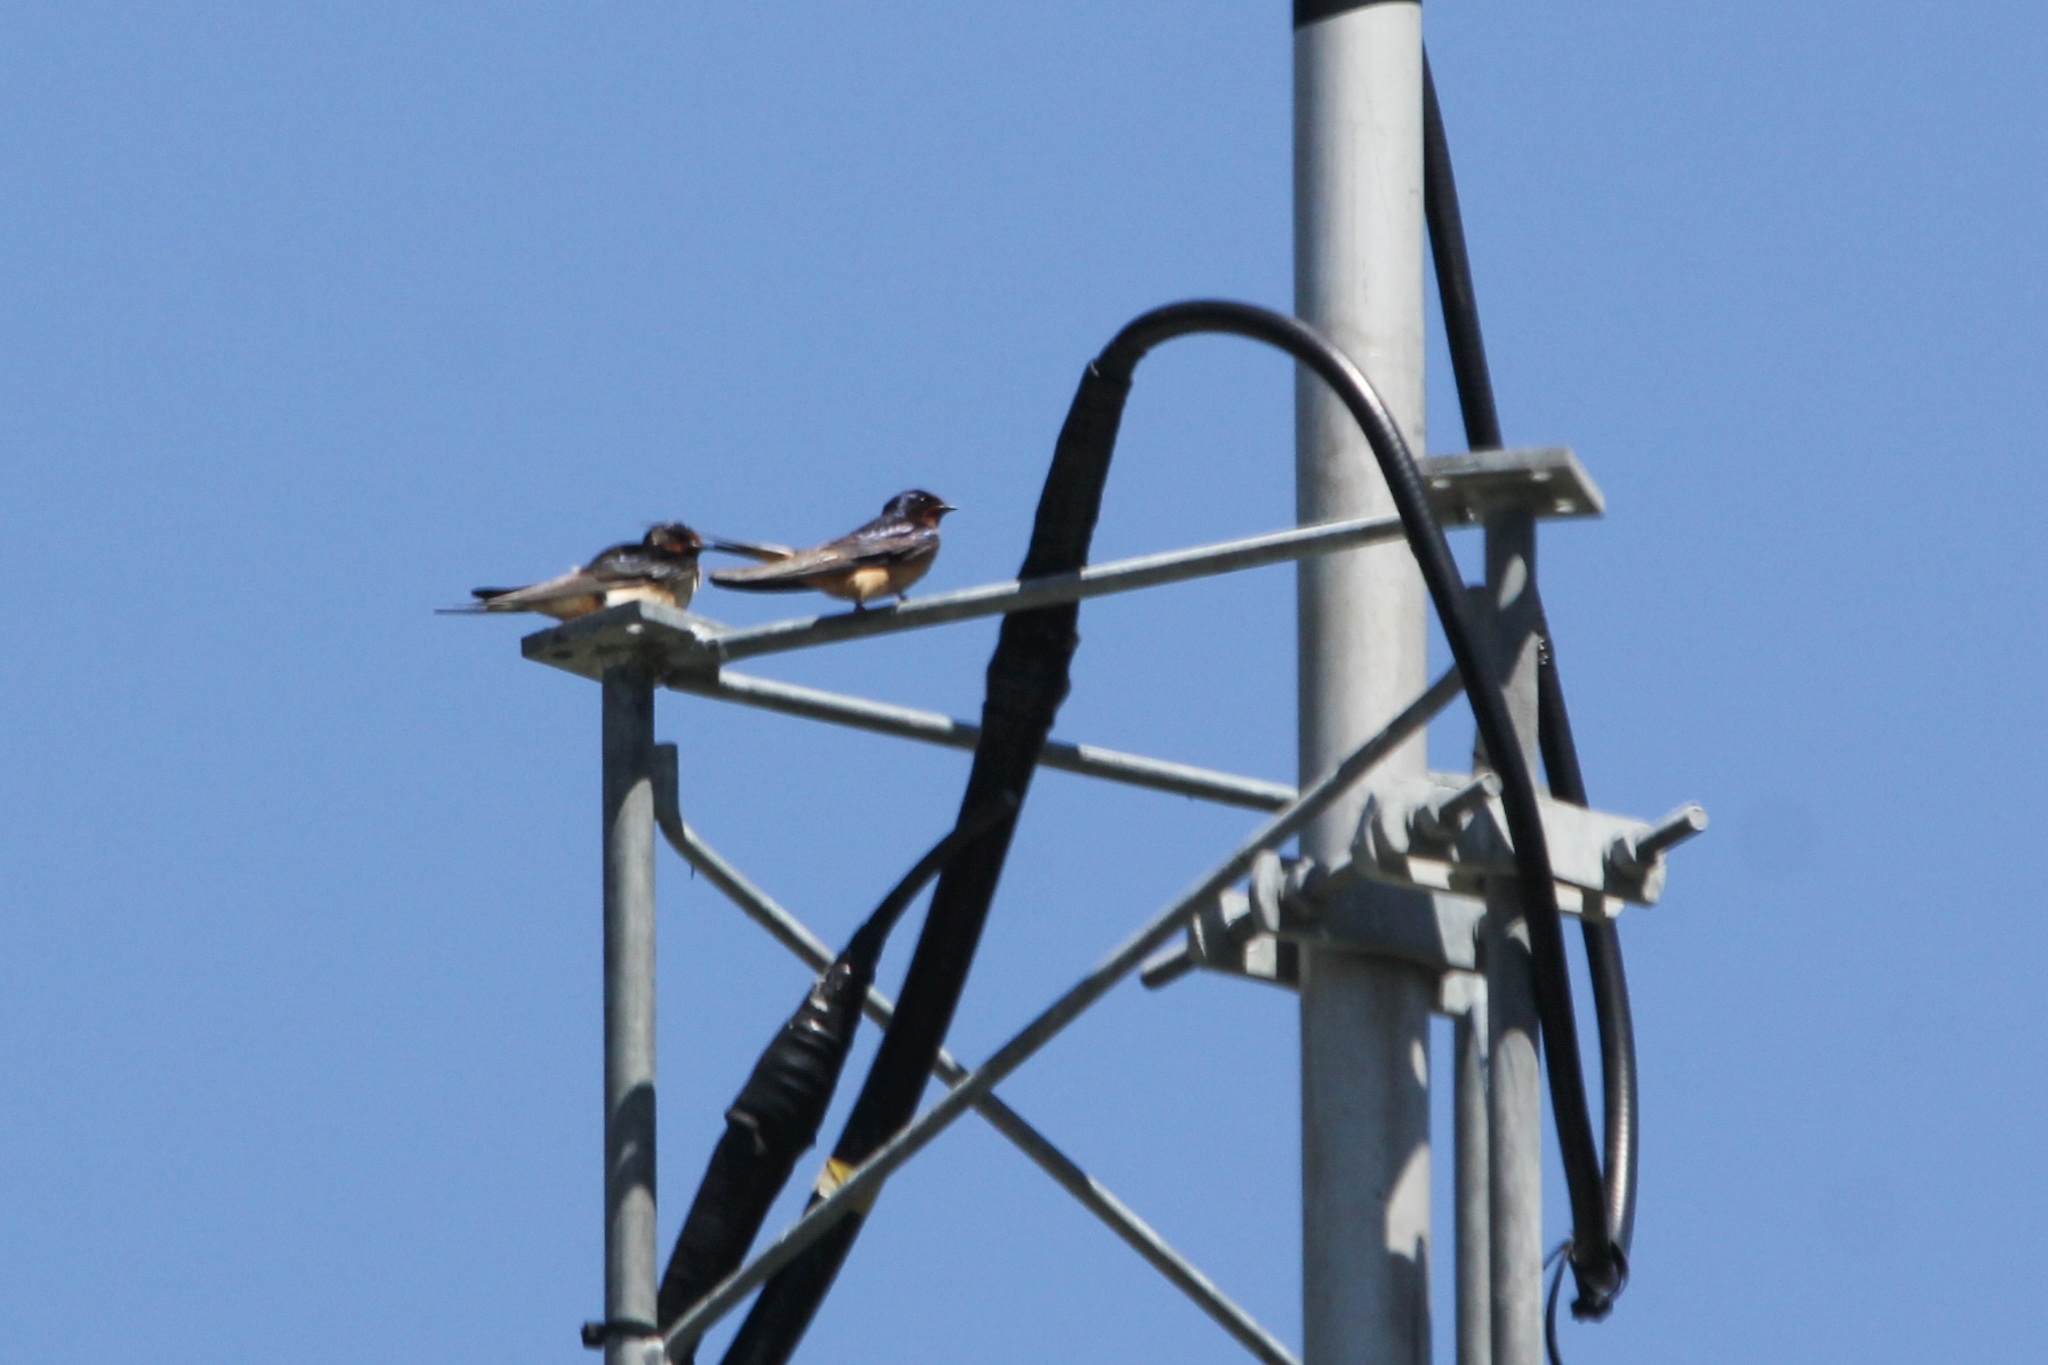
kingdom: Animalia
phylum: Chordata
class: Aves
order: Passeriformes
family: Hirundinidae
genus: Hirundo
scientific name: Hirundo rustica
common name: Barn swallow
